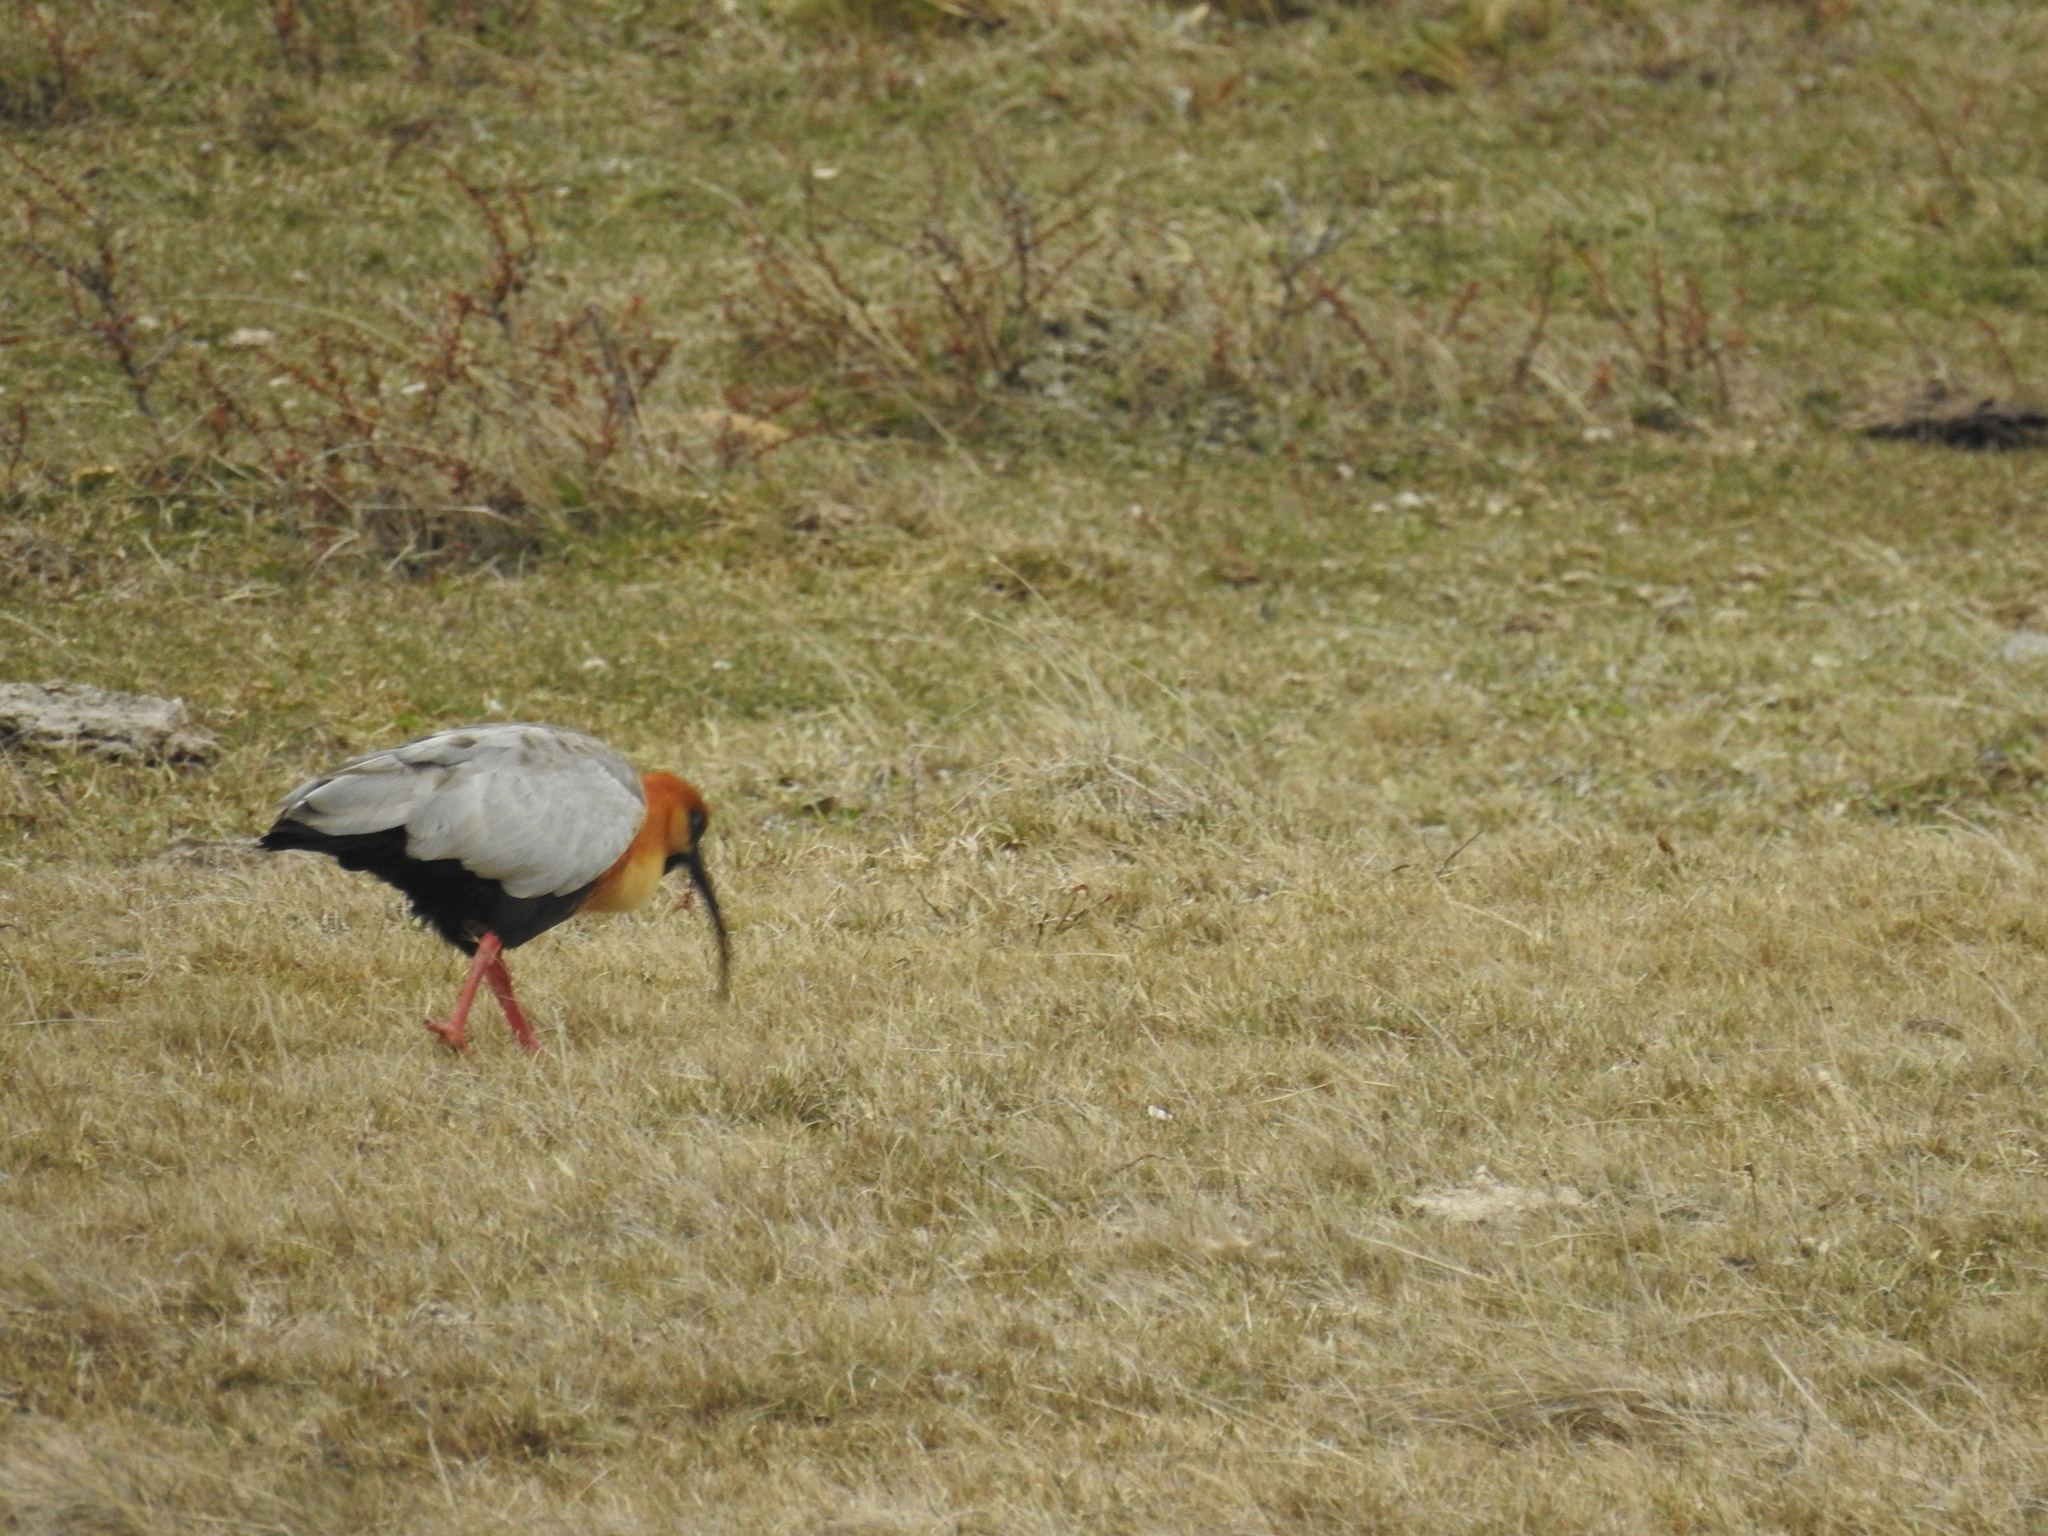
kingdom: Animalia
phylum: Chordata
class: Aves
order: Pelecaniformes
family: Threskiornithidae
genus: Theristicus
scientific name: Theristicus melanopis
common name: Black-faced ibis
